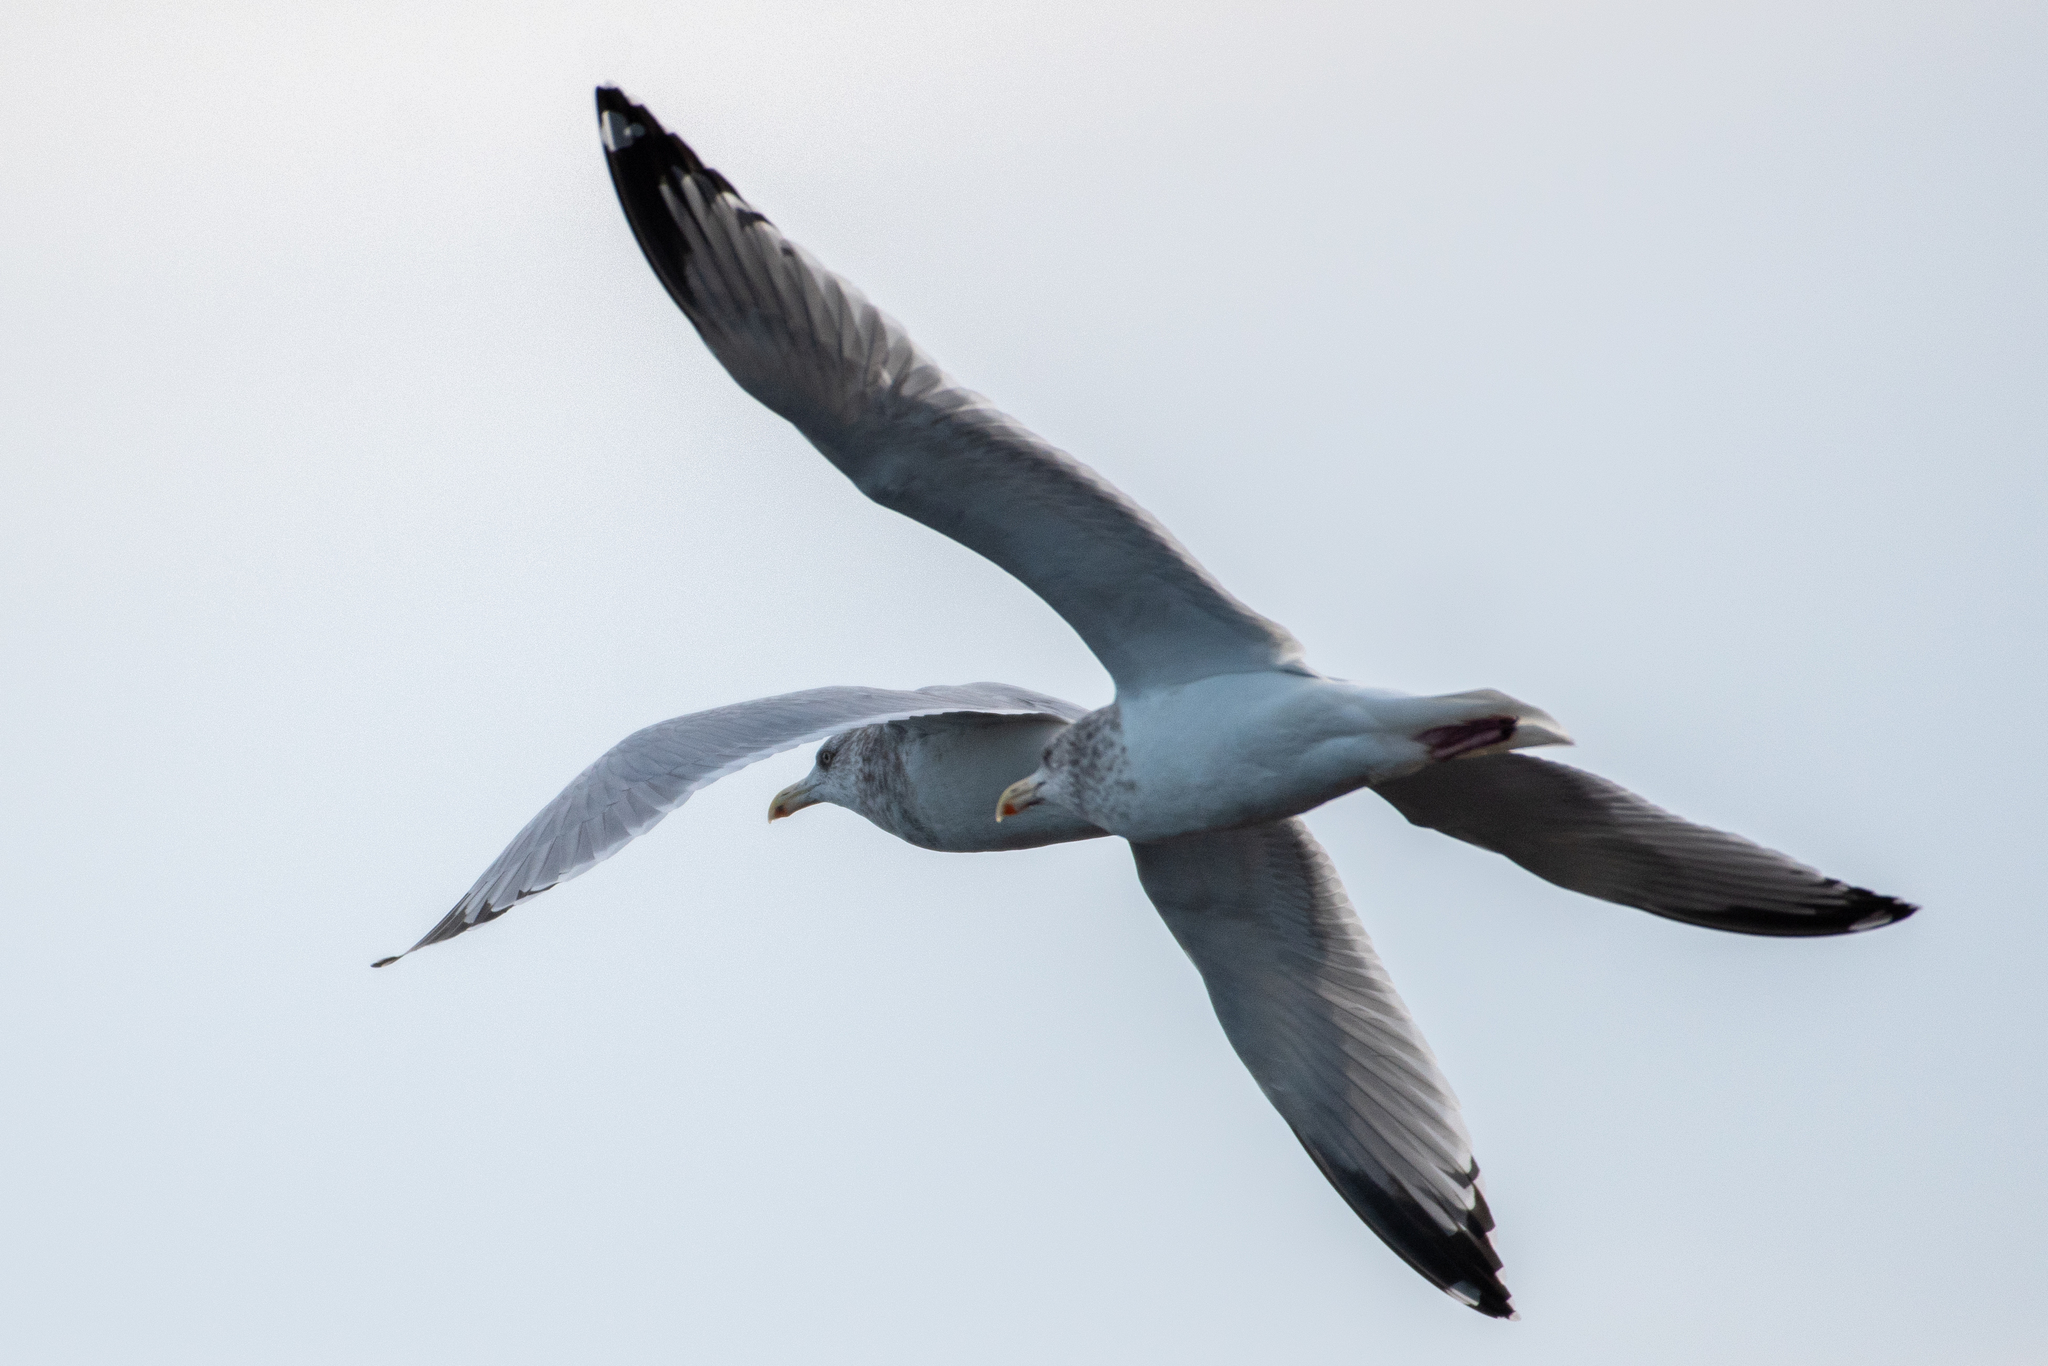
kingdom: Animalia
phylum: Chordata
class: Aves
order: Charadriiformes
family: Laridae
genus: Larus
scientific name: Larus argentatus
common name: Herring gull
